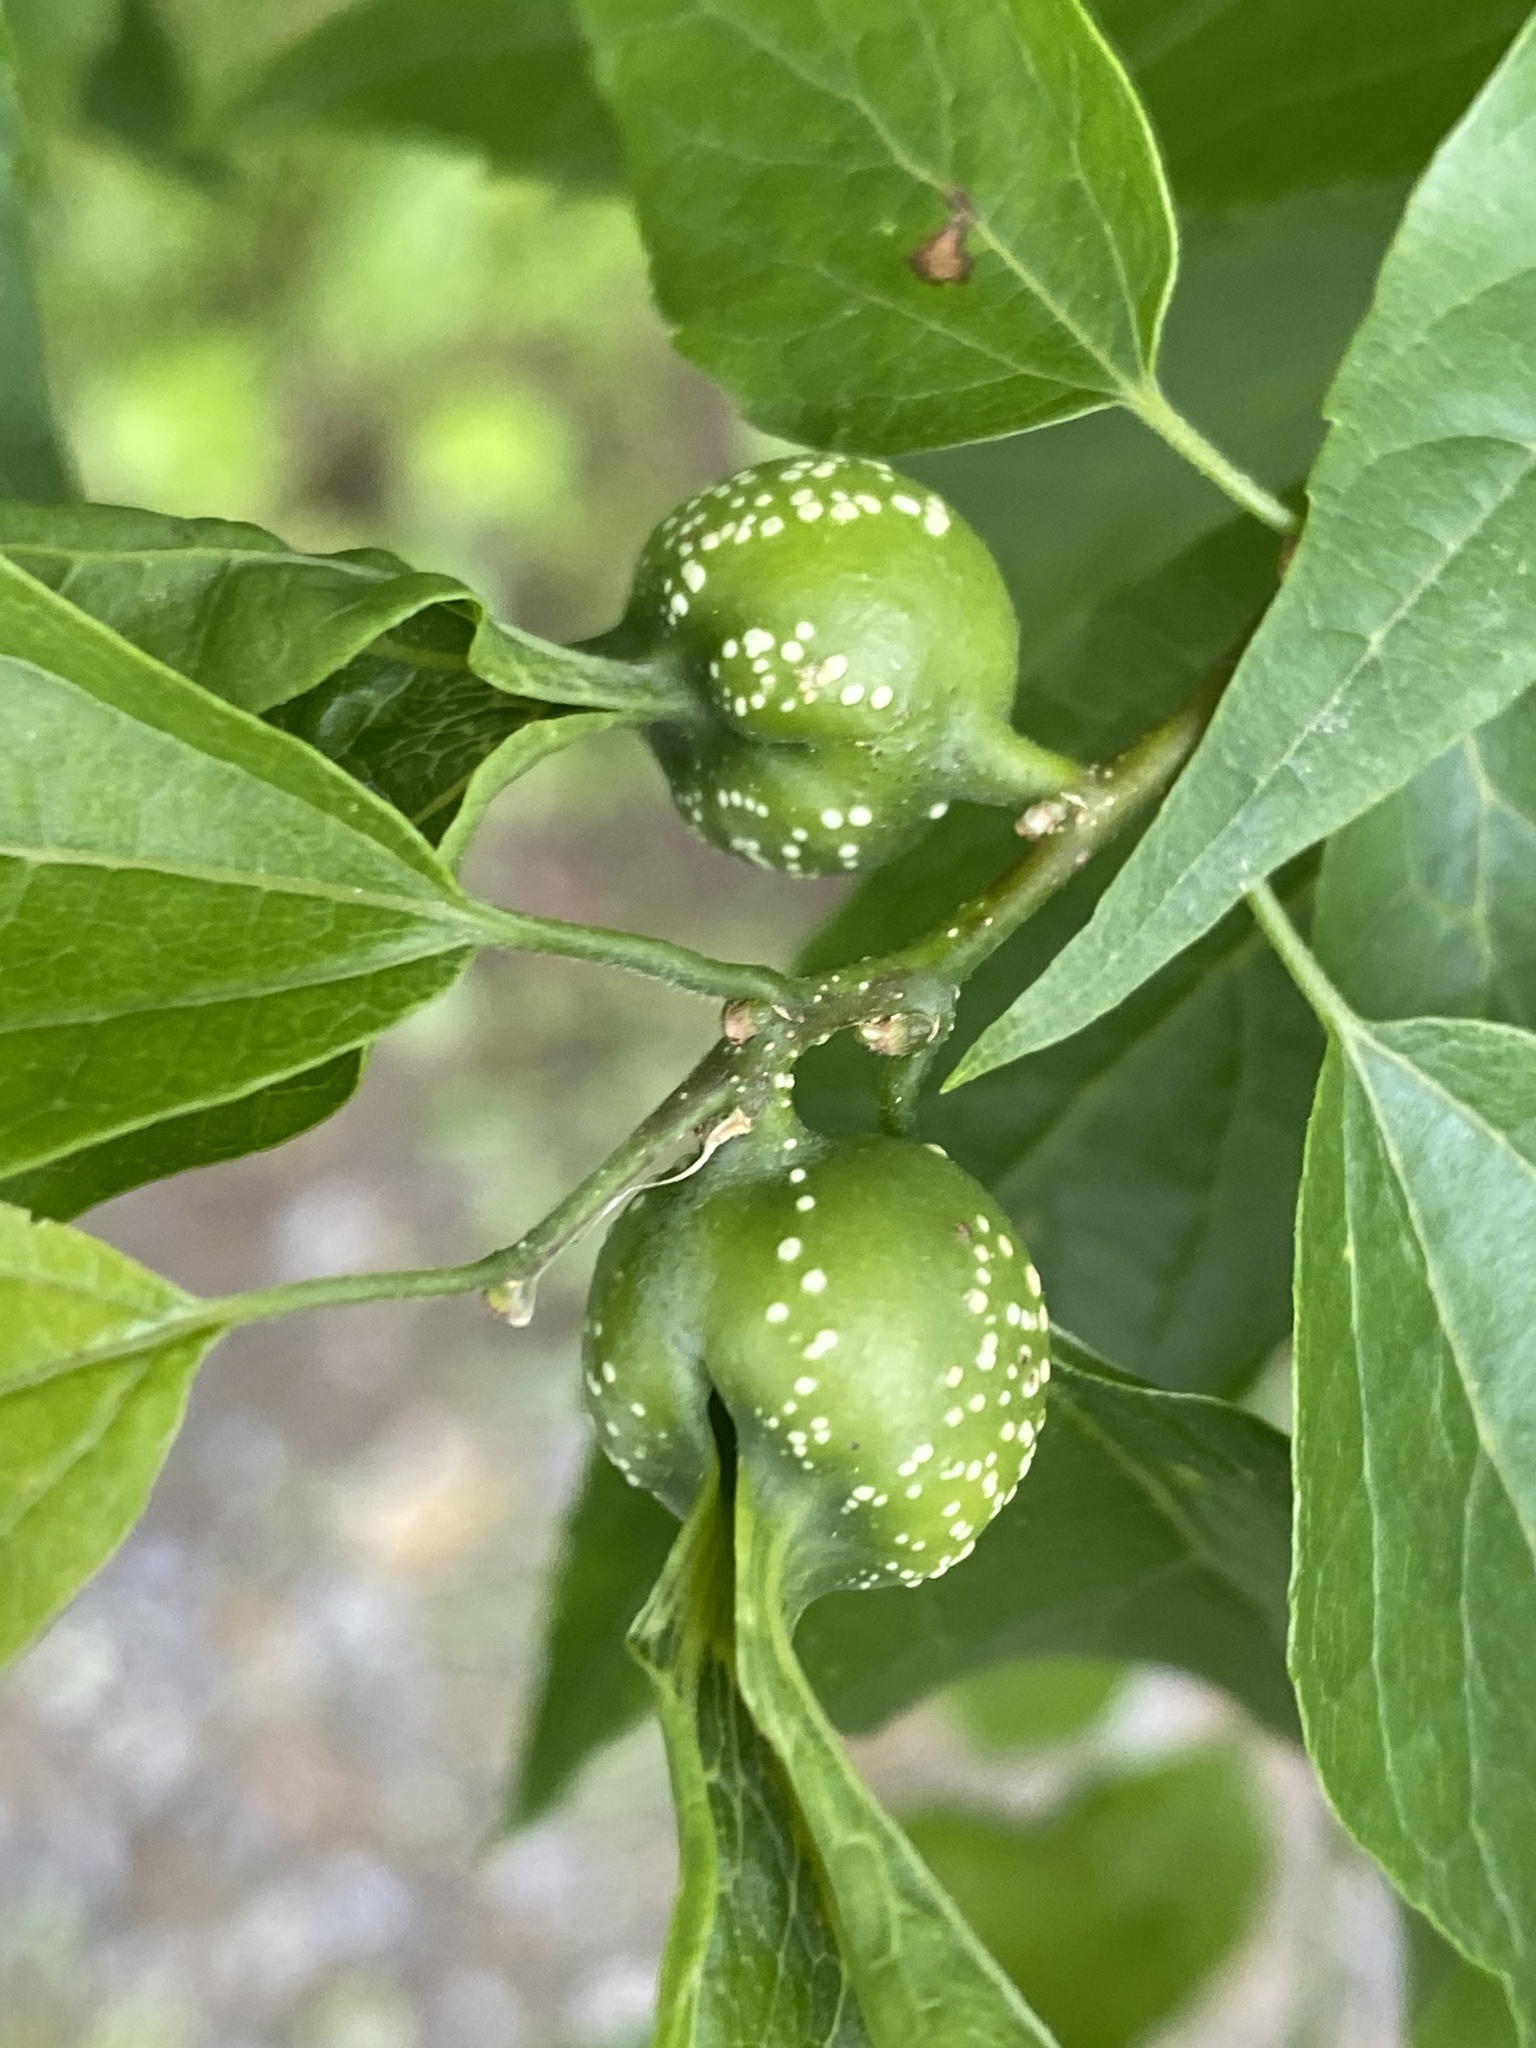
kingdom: Animalia
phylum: Arthropoda
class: Insecta
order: Hemiptera
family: Aphalaridae
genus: Pachypsylla
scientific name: Pachypsylla venusta
